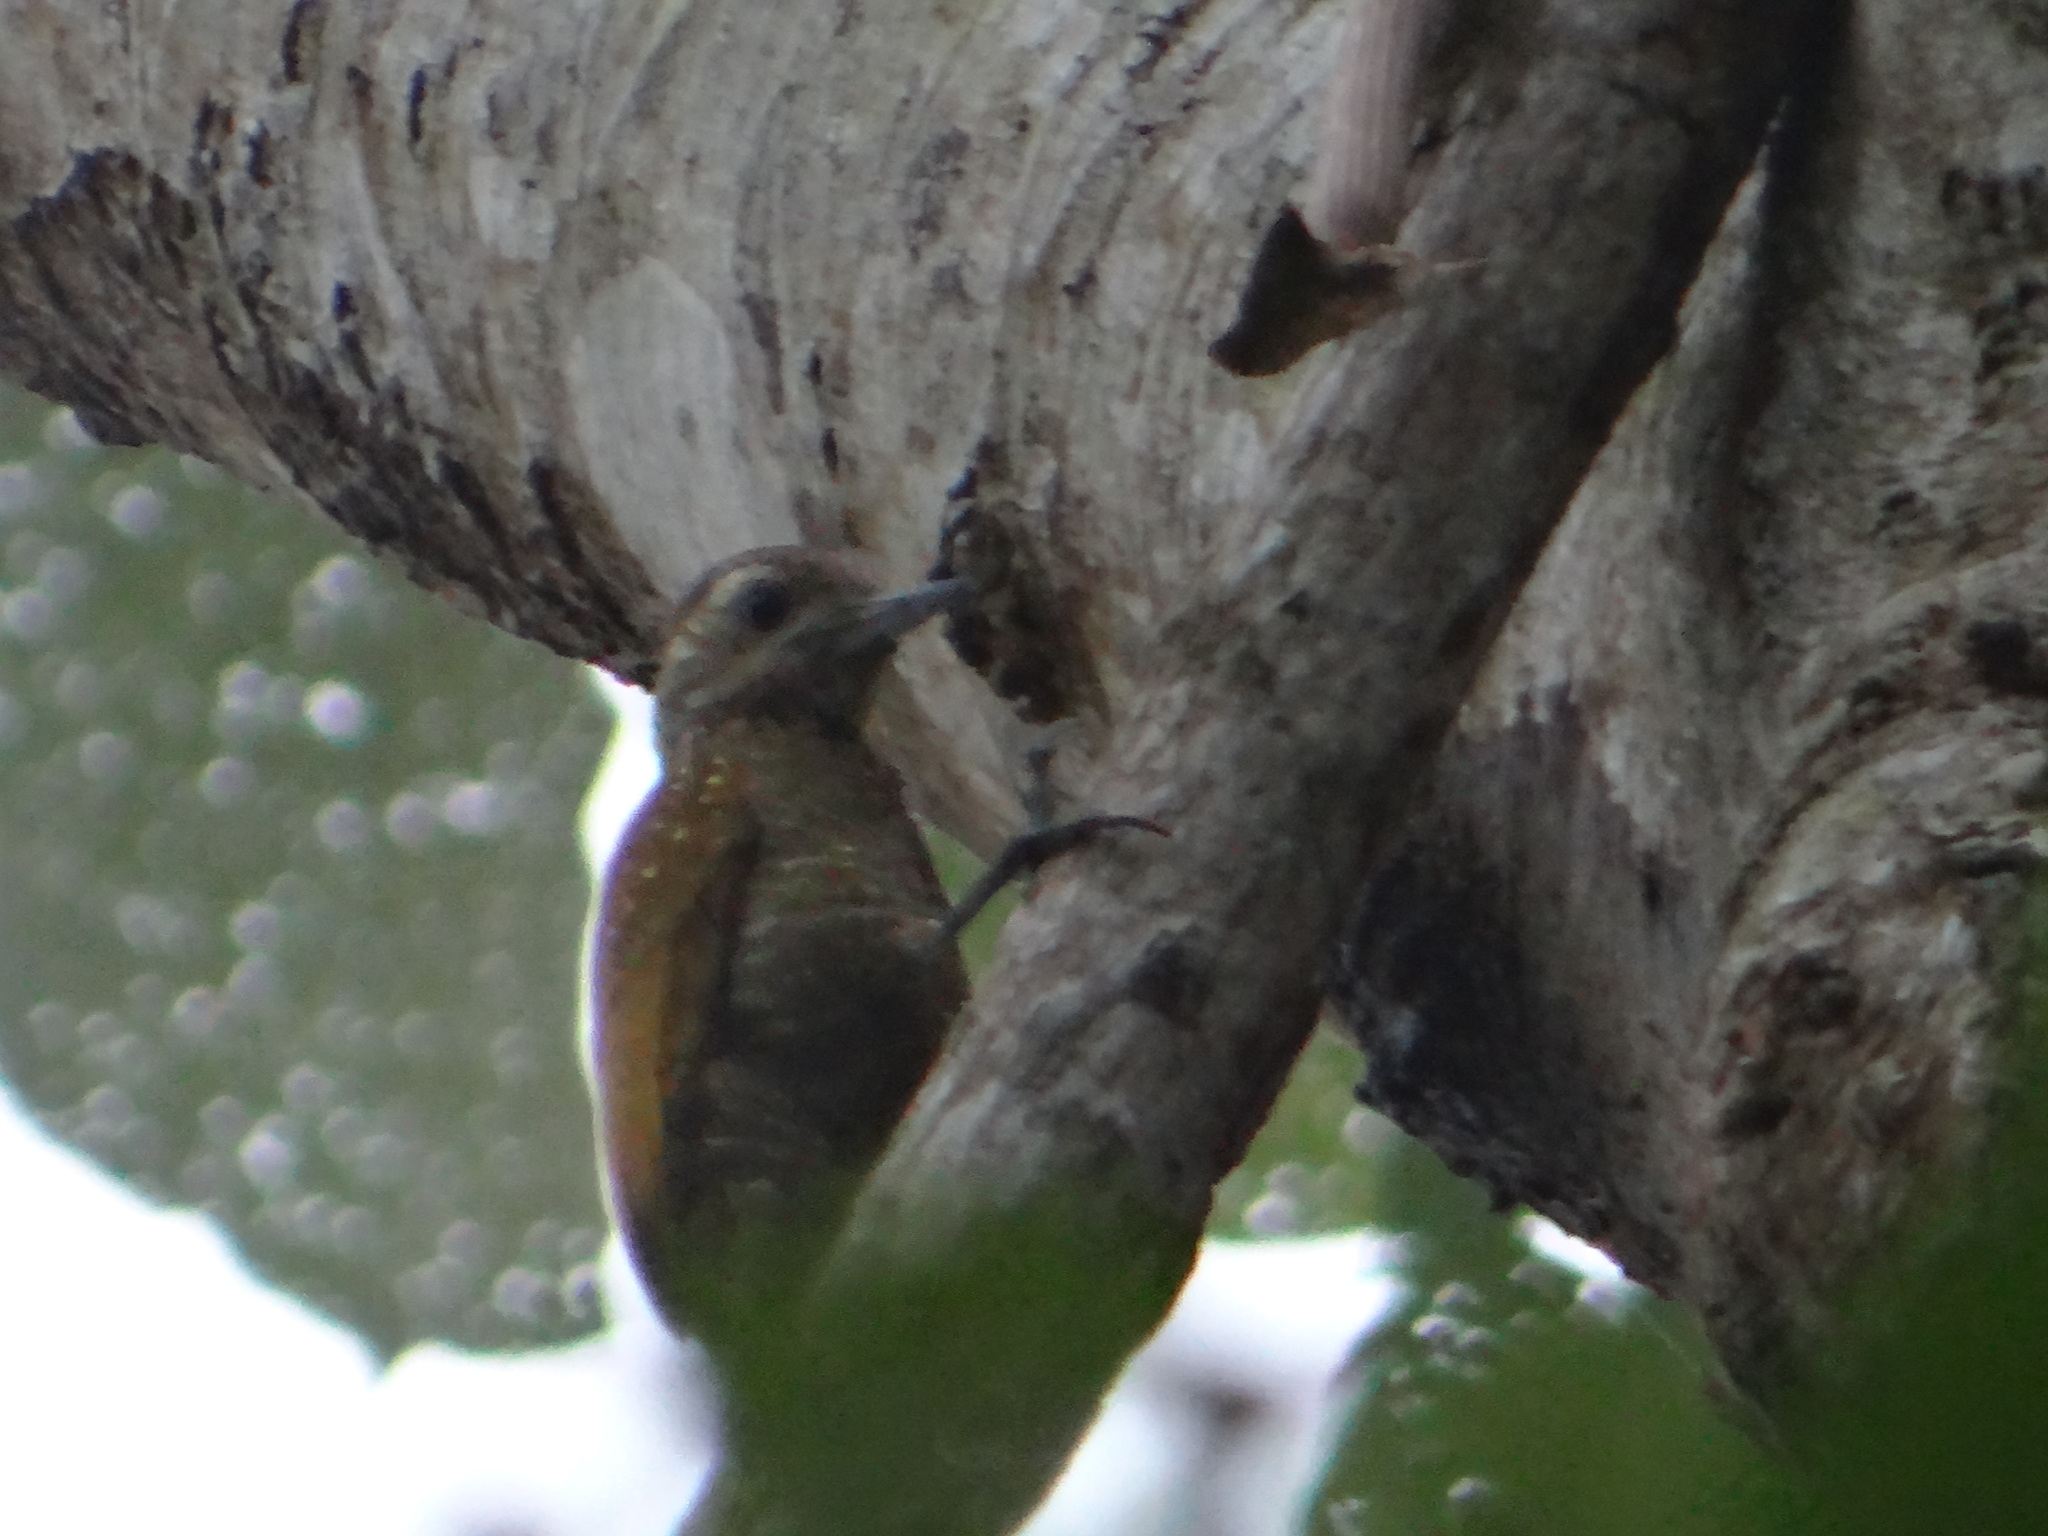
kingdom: Animalia
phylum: Chordata
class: Aves
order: Piciformes
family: Picidae
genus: Veniliornis
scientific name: Veniliornis passerinus
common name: Little woodpecker
